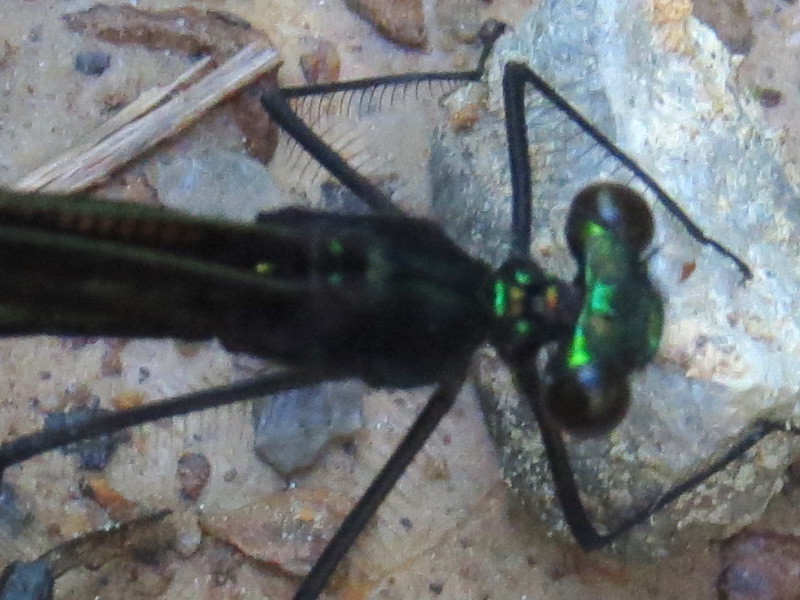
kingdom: Animalia
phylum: Arthropoda
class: Insecta
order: Odonata
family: Calopterygidae
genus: Calopteryx
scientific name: Calopteryx maculata
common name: Ebony jewelwing
